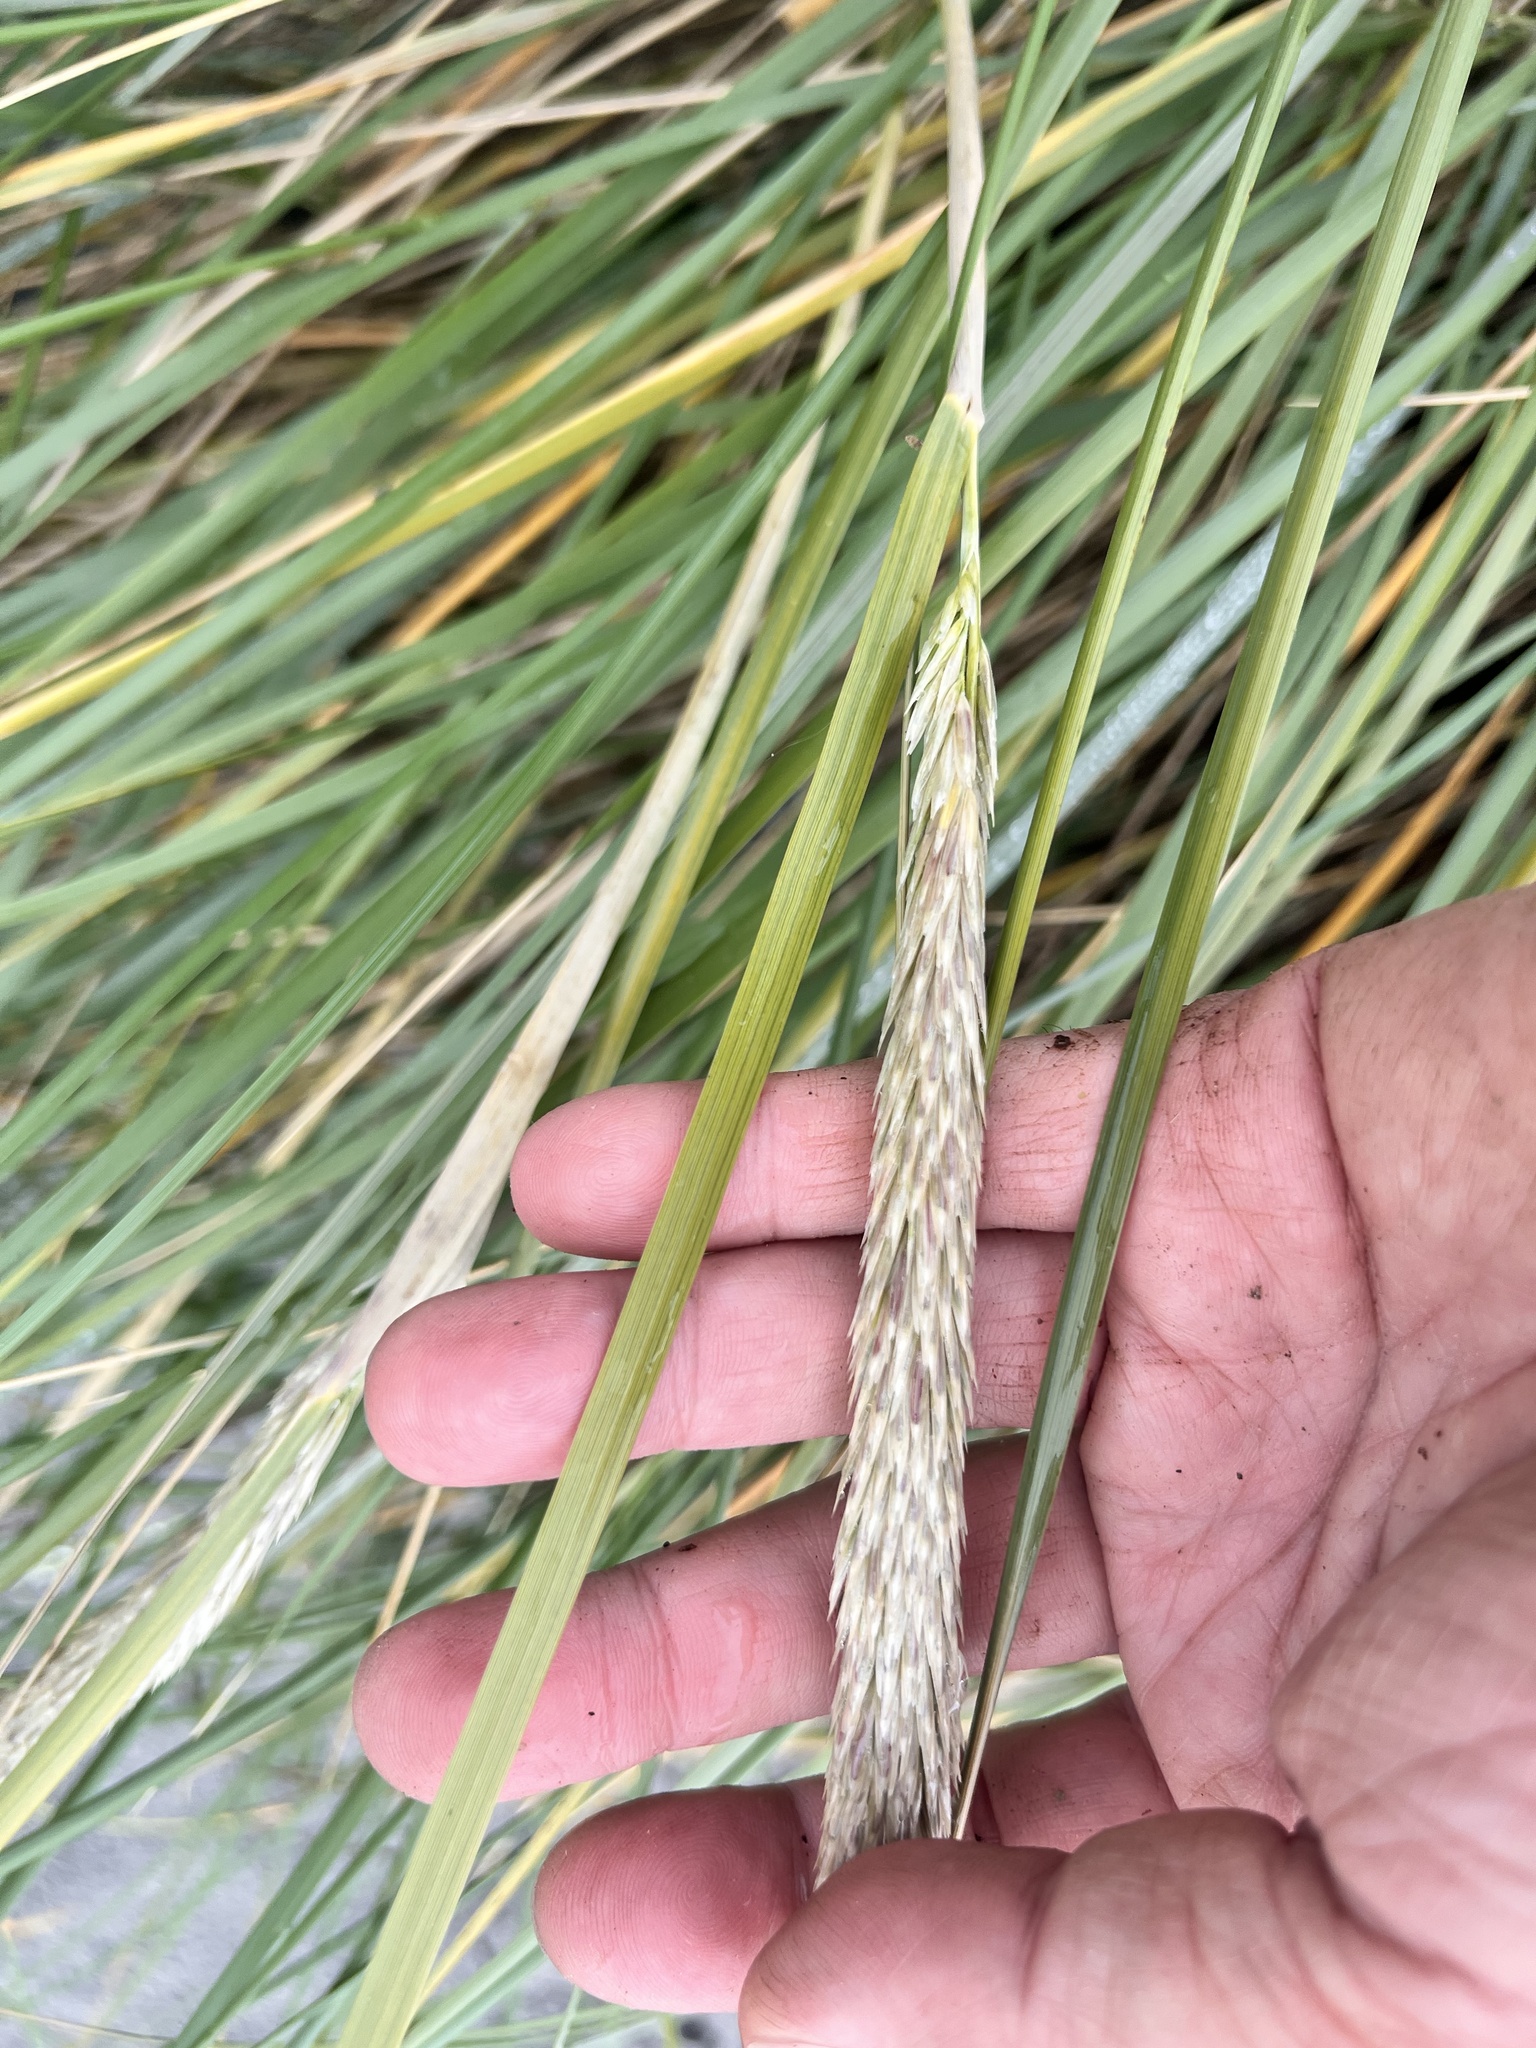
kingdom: Plantae
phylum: Tracheophyta
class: Liliopsida
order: Poales
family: Poaceae
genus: Calamagrostis
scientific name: Calamagrostis arenaria
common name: European beachgrass
